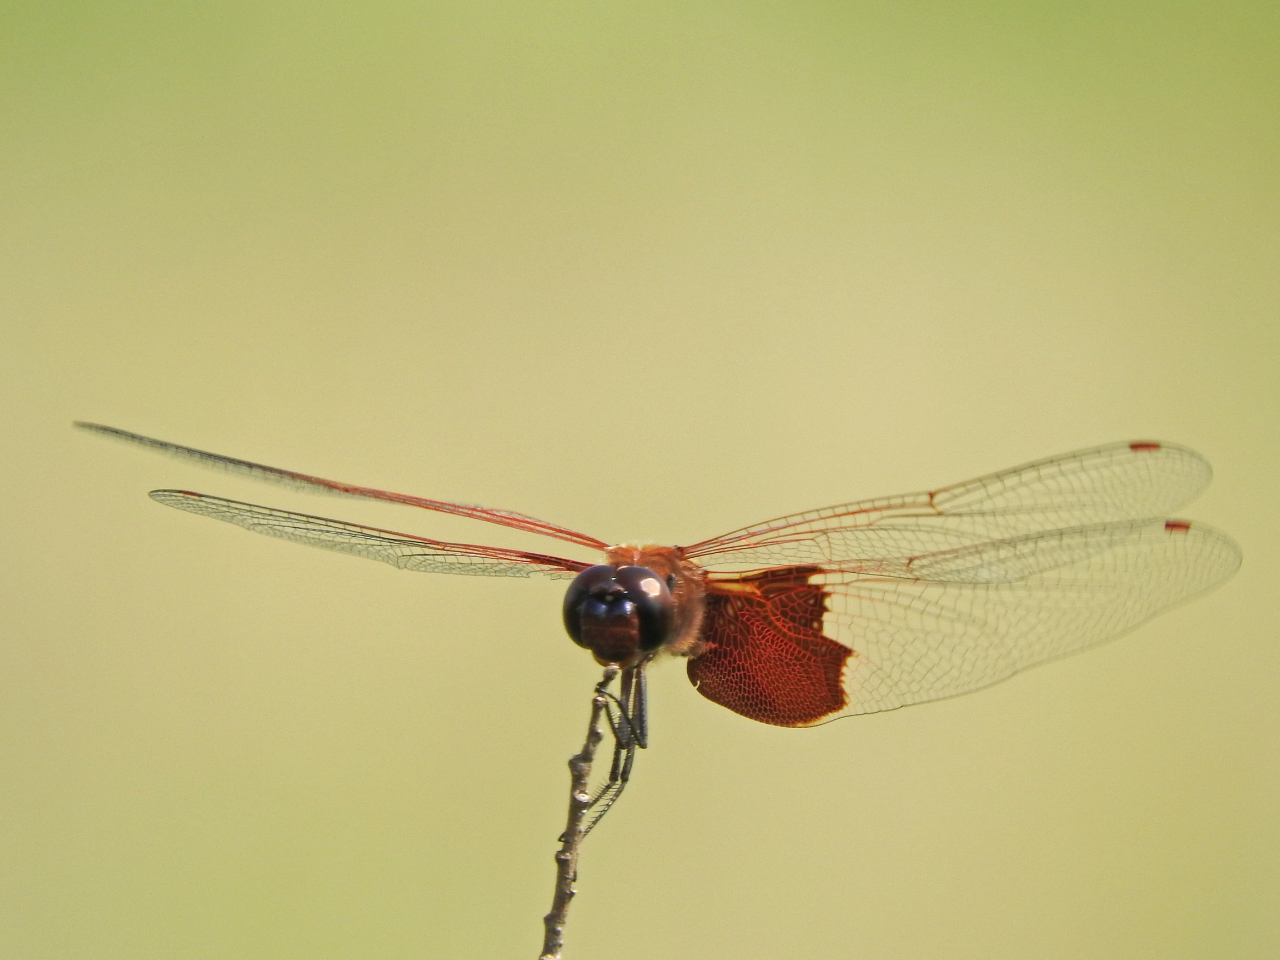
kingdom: Animalia
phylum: Arthropoda
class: Insecta
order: Odonata
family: Libellulidae
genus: Tramea
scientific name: Tramea carolina
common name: Carolina saddlebags
